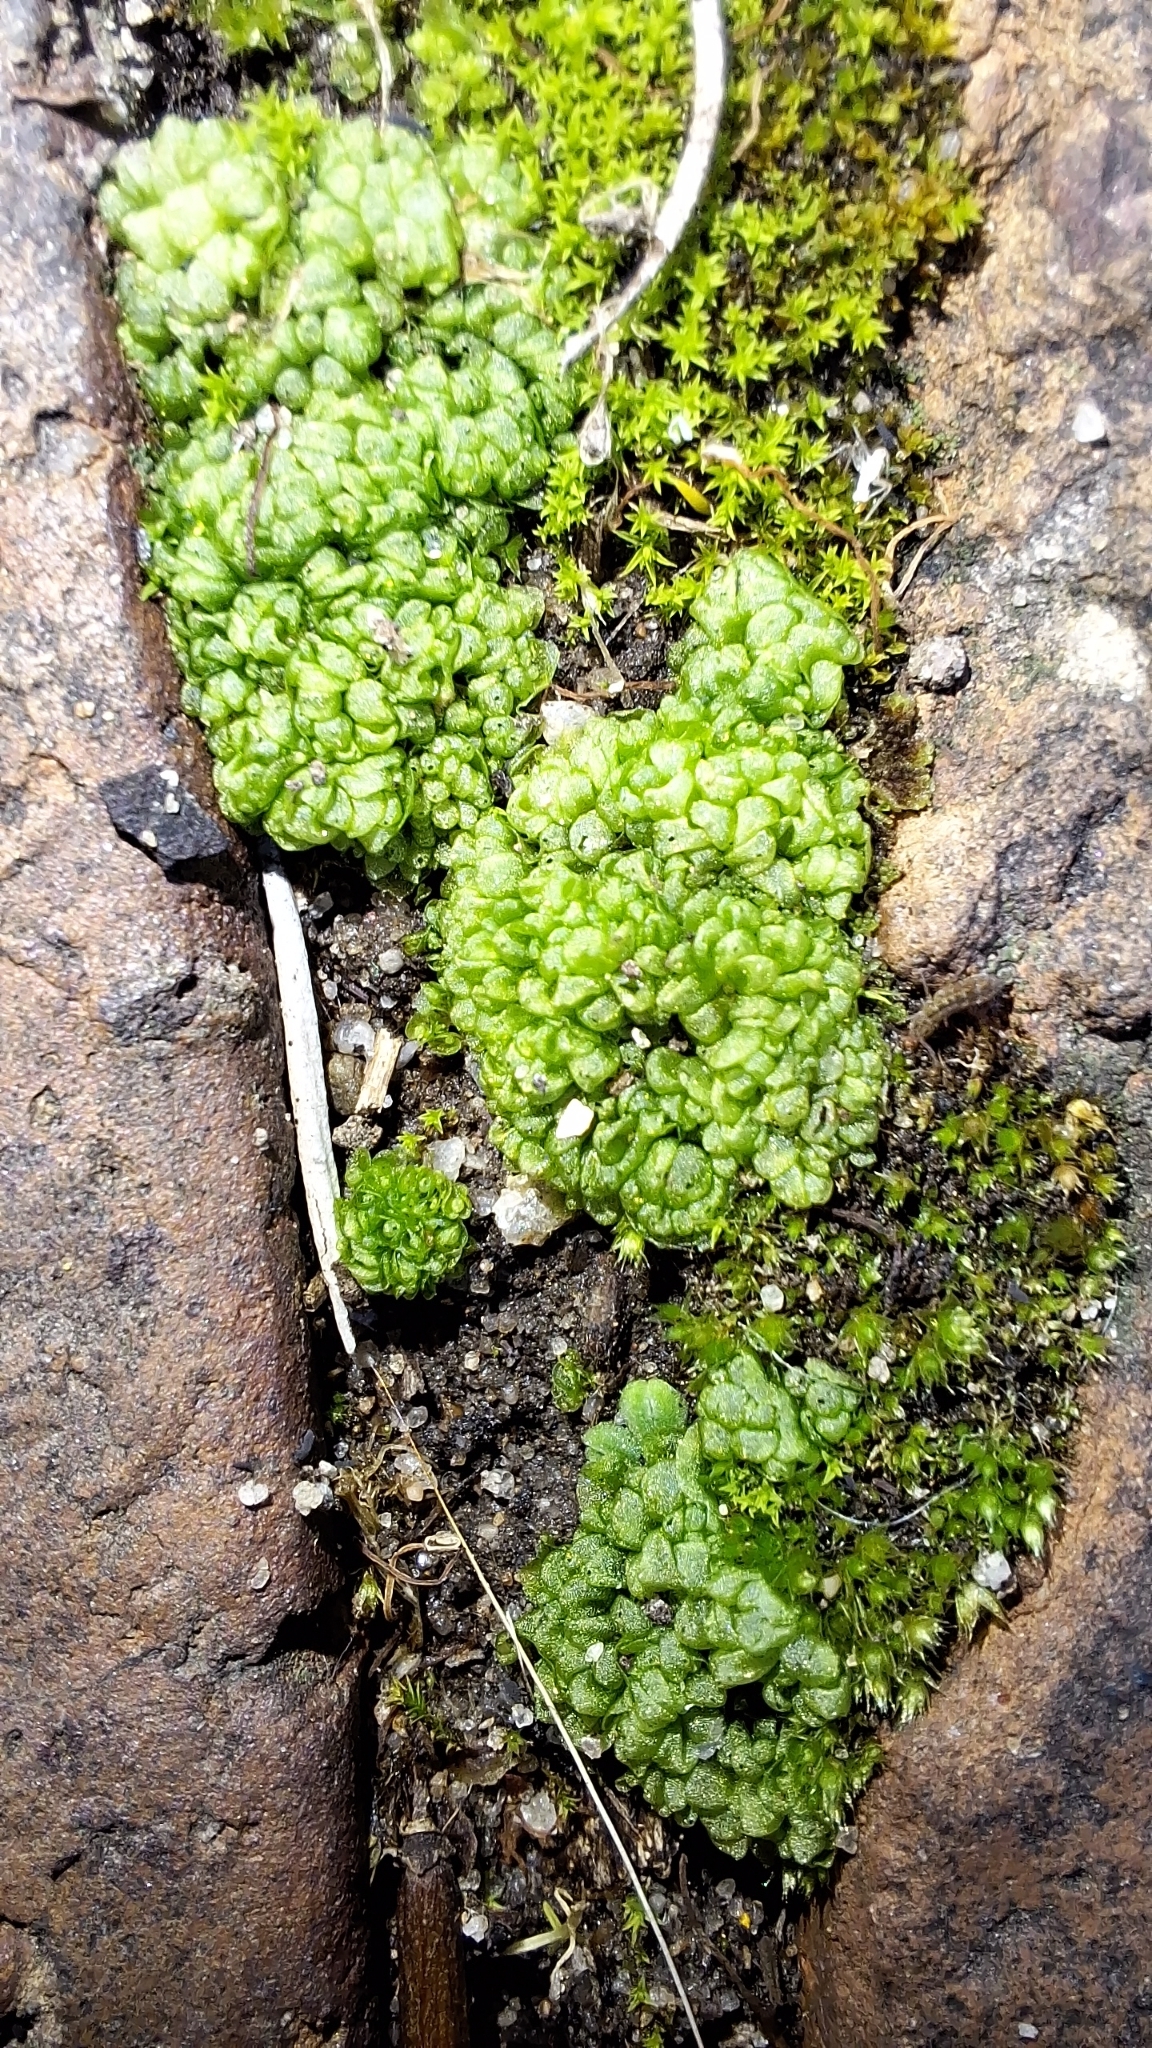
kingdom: Plantae
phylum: Marchantiophyta
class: Marchantiopsida
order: Sphaerocarpales
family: Sphaerocarpaceae
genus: Sphaerocarpos
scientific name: Sphaerocarpos texanus
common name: Texas balloonwort
